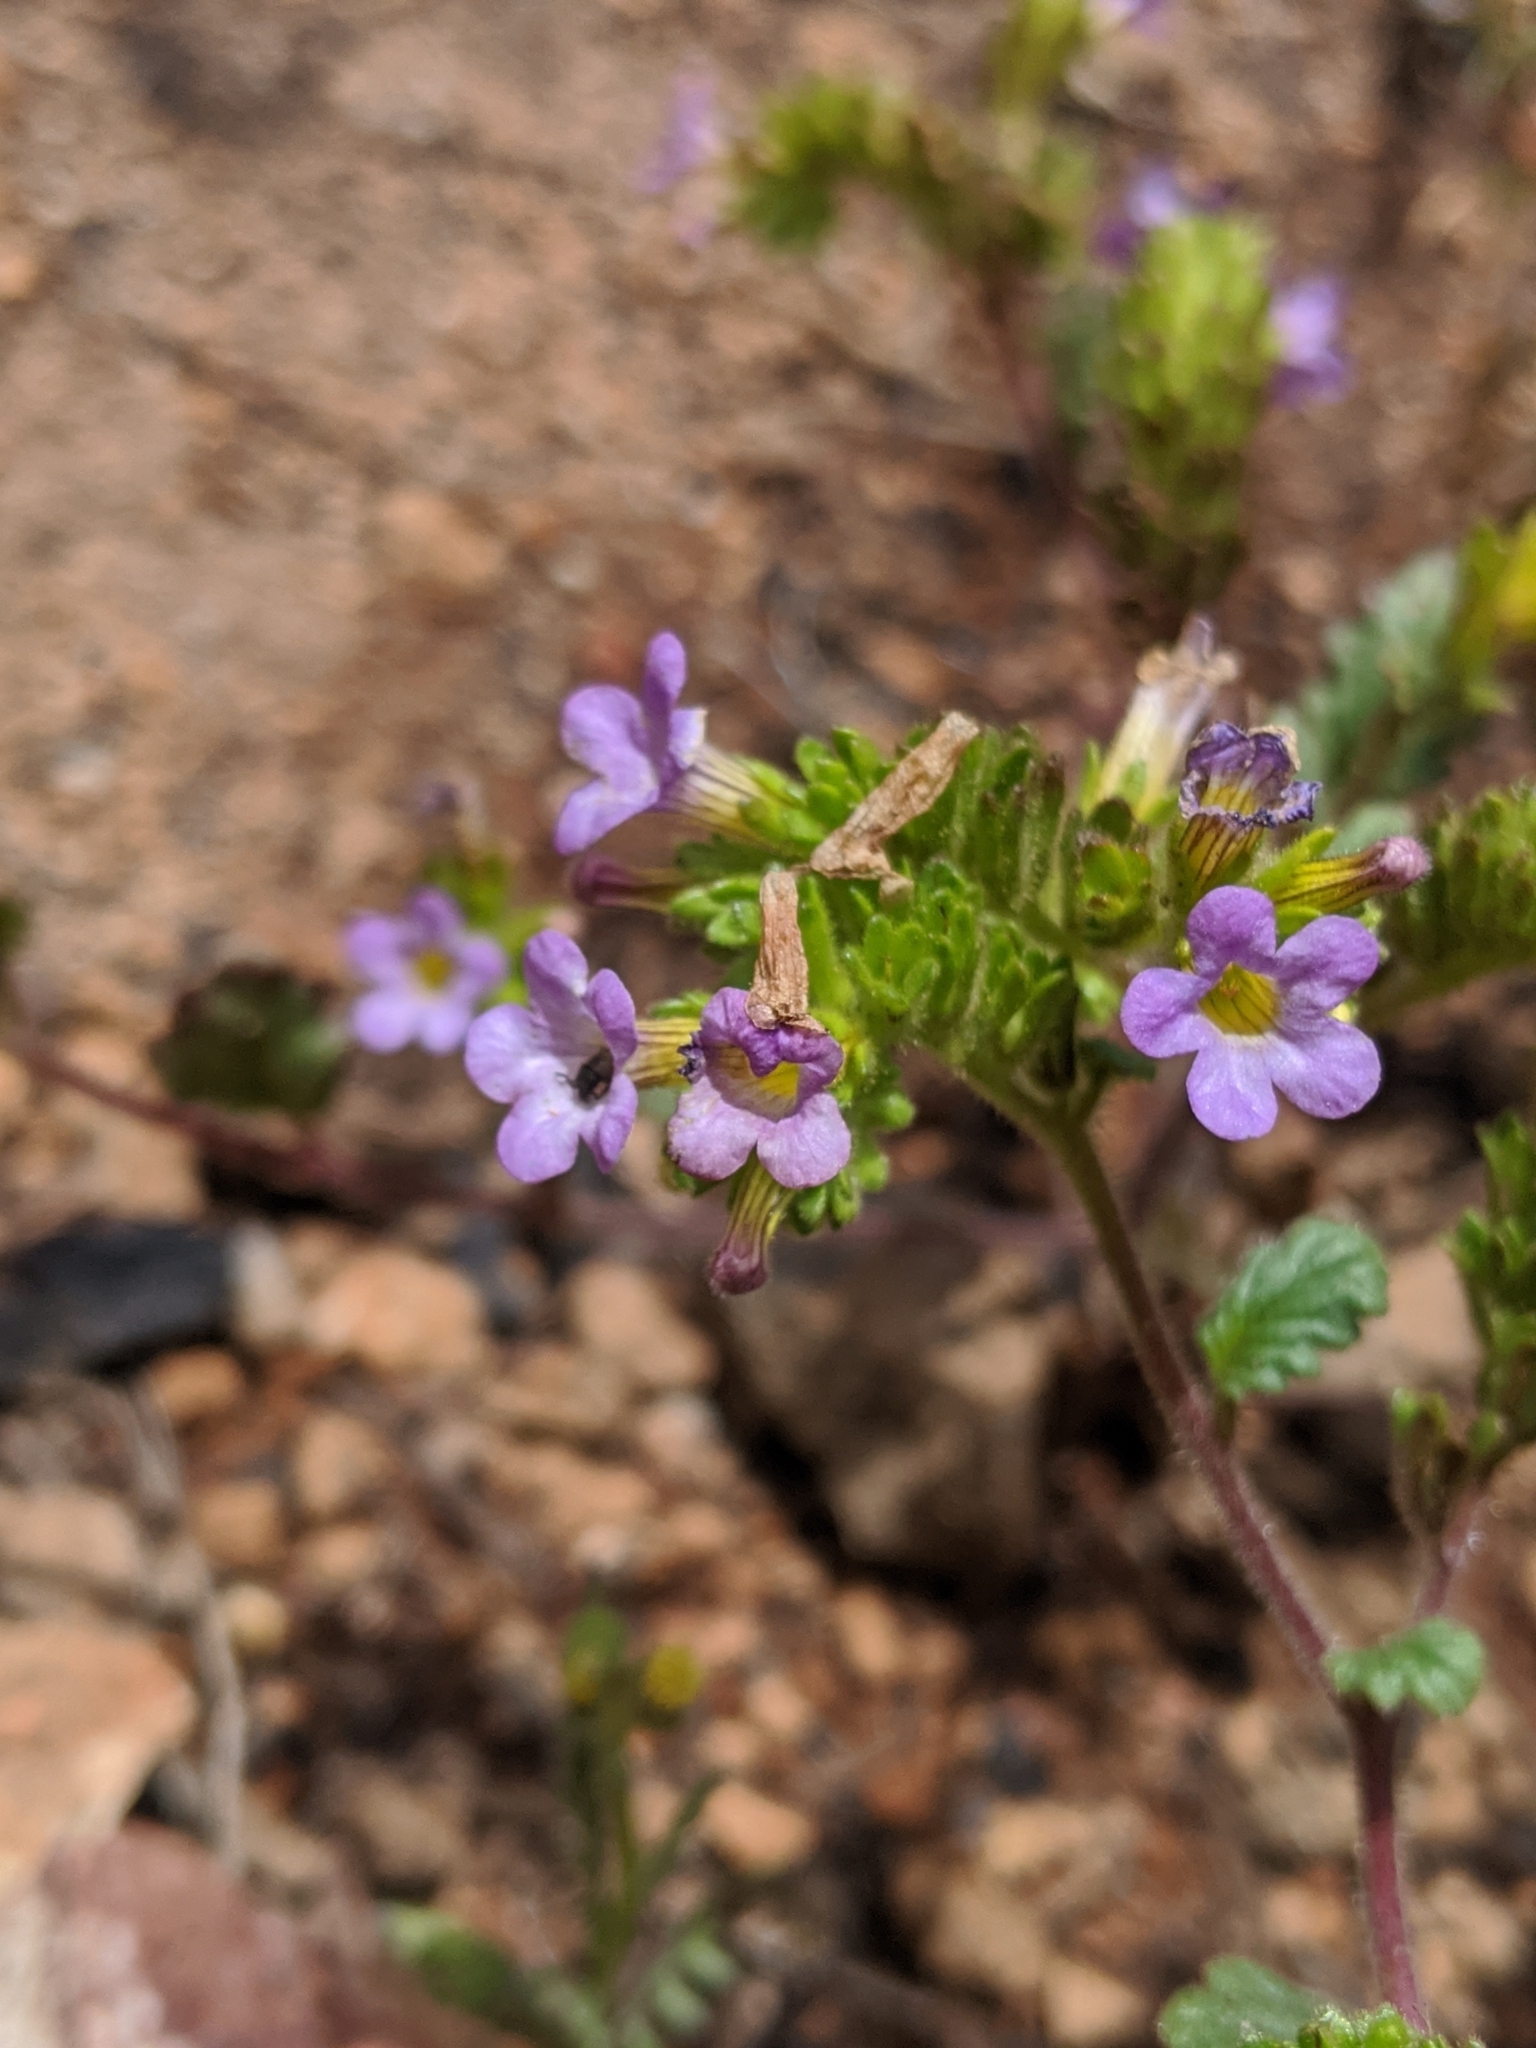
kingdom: Plantae
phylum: Tracheophyta
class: Magnoliopsida
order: Boraginales
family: Hydrophyllaceae
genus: Phacelia
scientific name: Phacelia suaveolens
